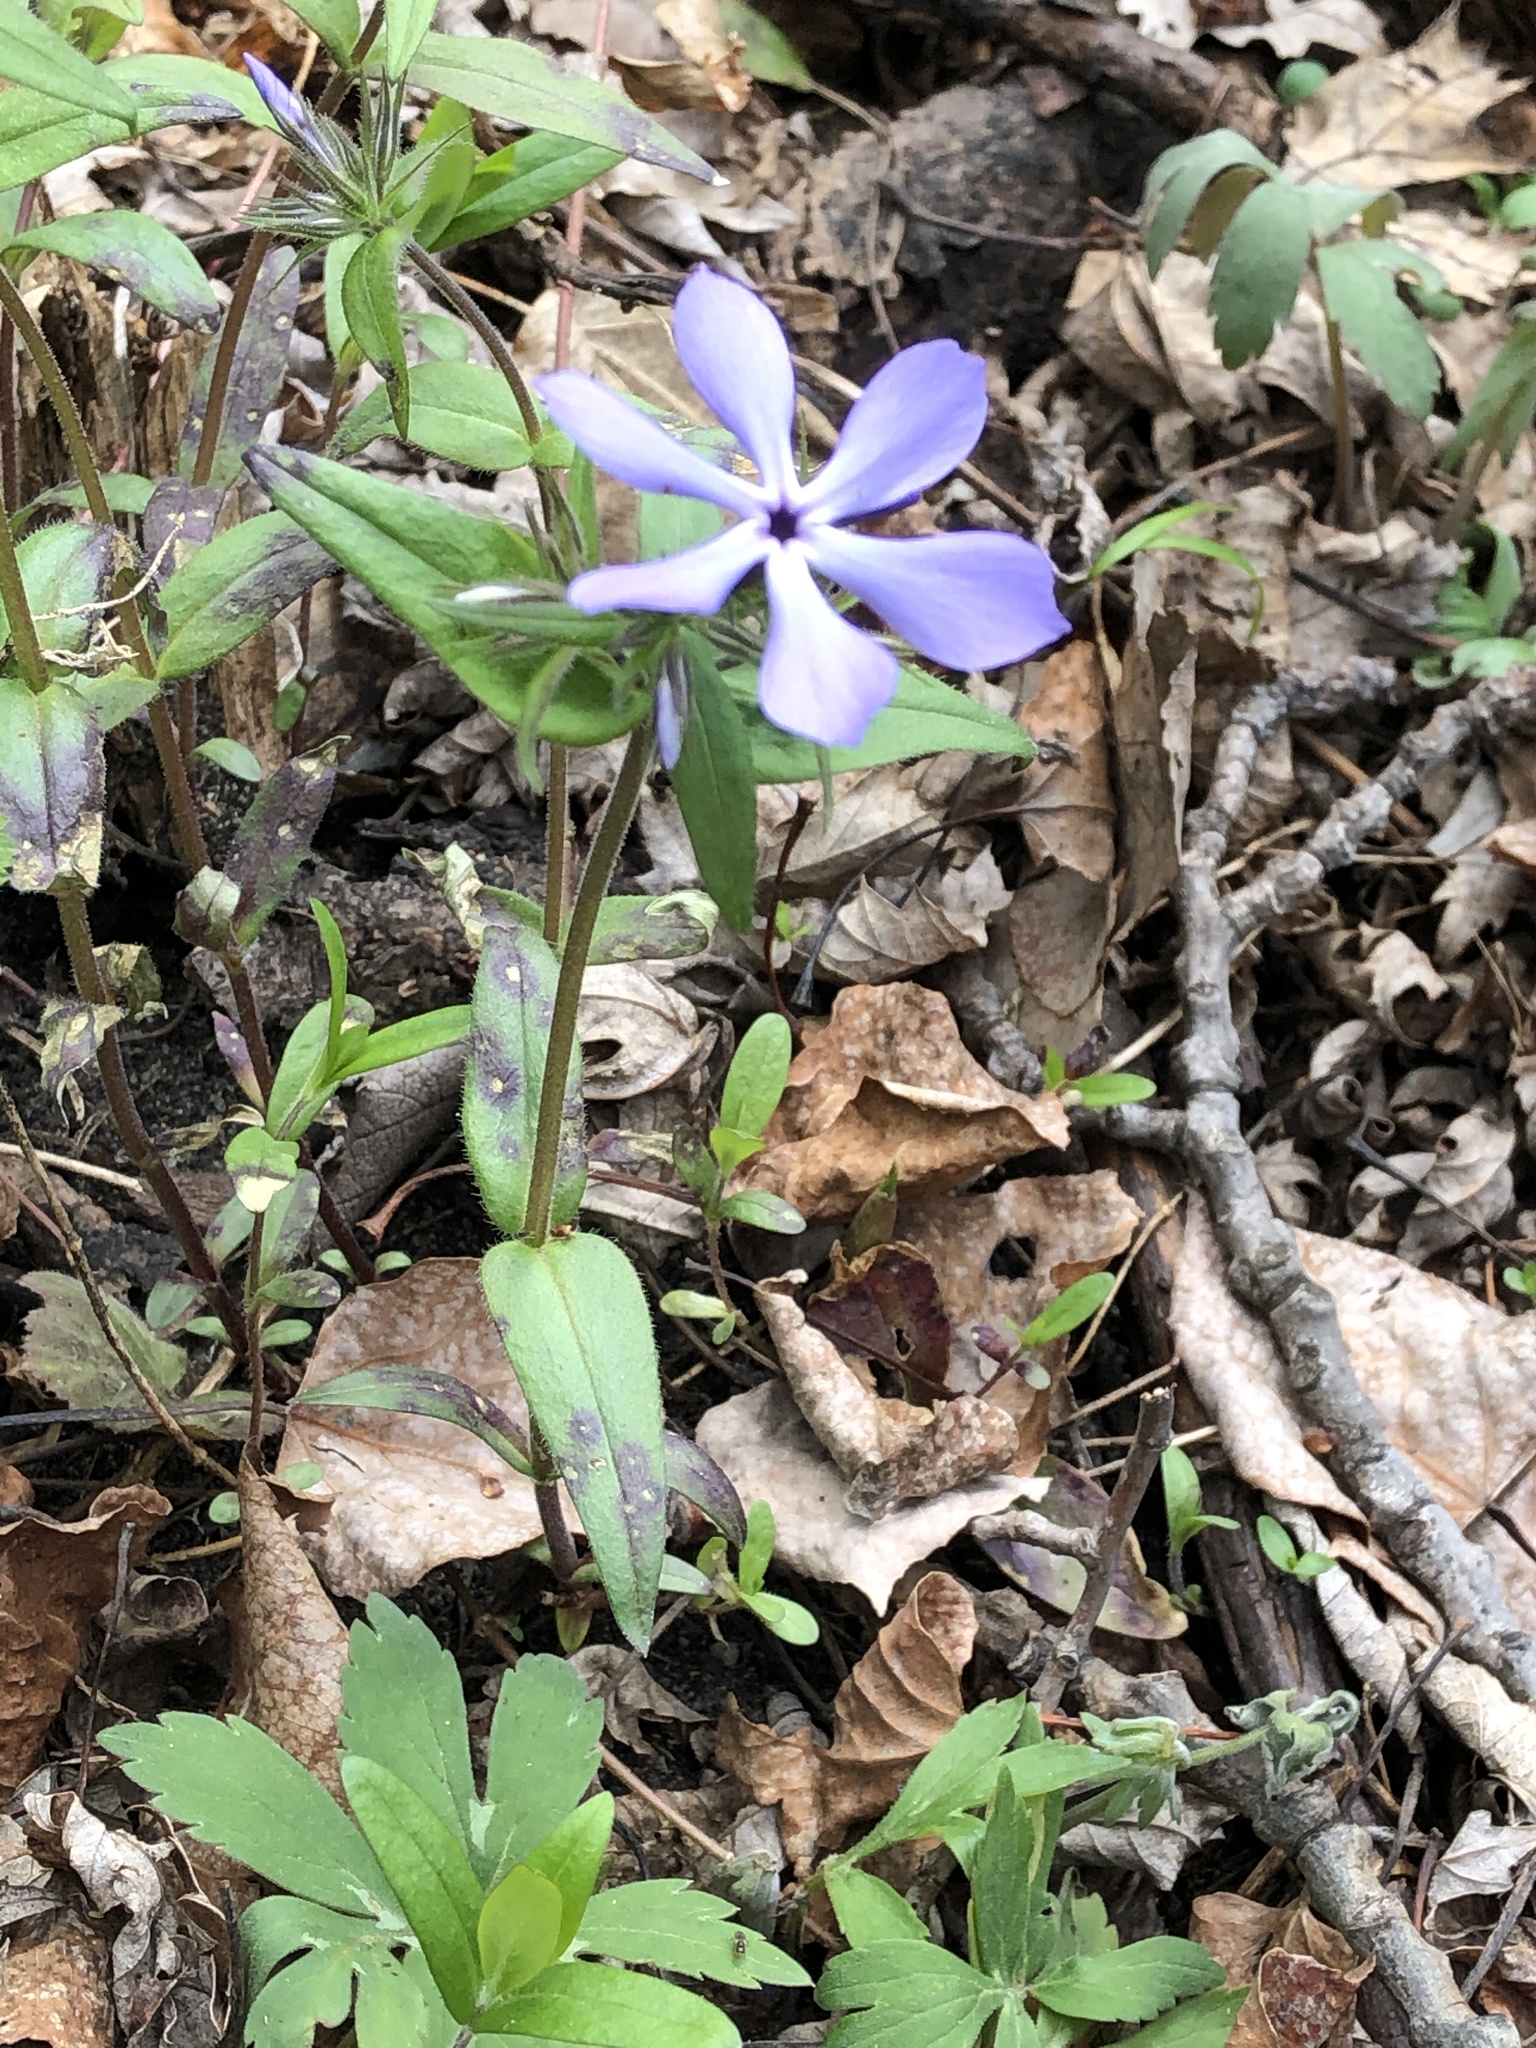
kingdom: Plantae
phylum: Tracheophyta
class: Magnoliopsida
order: Ericales
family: Polemoniaceae
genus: Phlox
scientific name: Phlox divaricata
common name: Blue phlox
